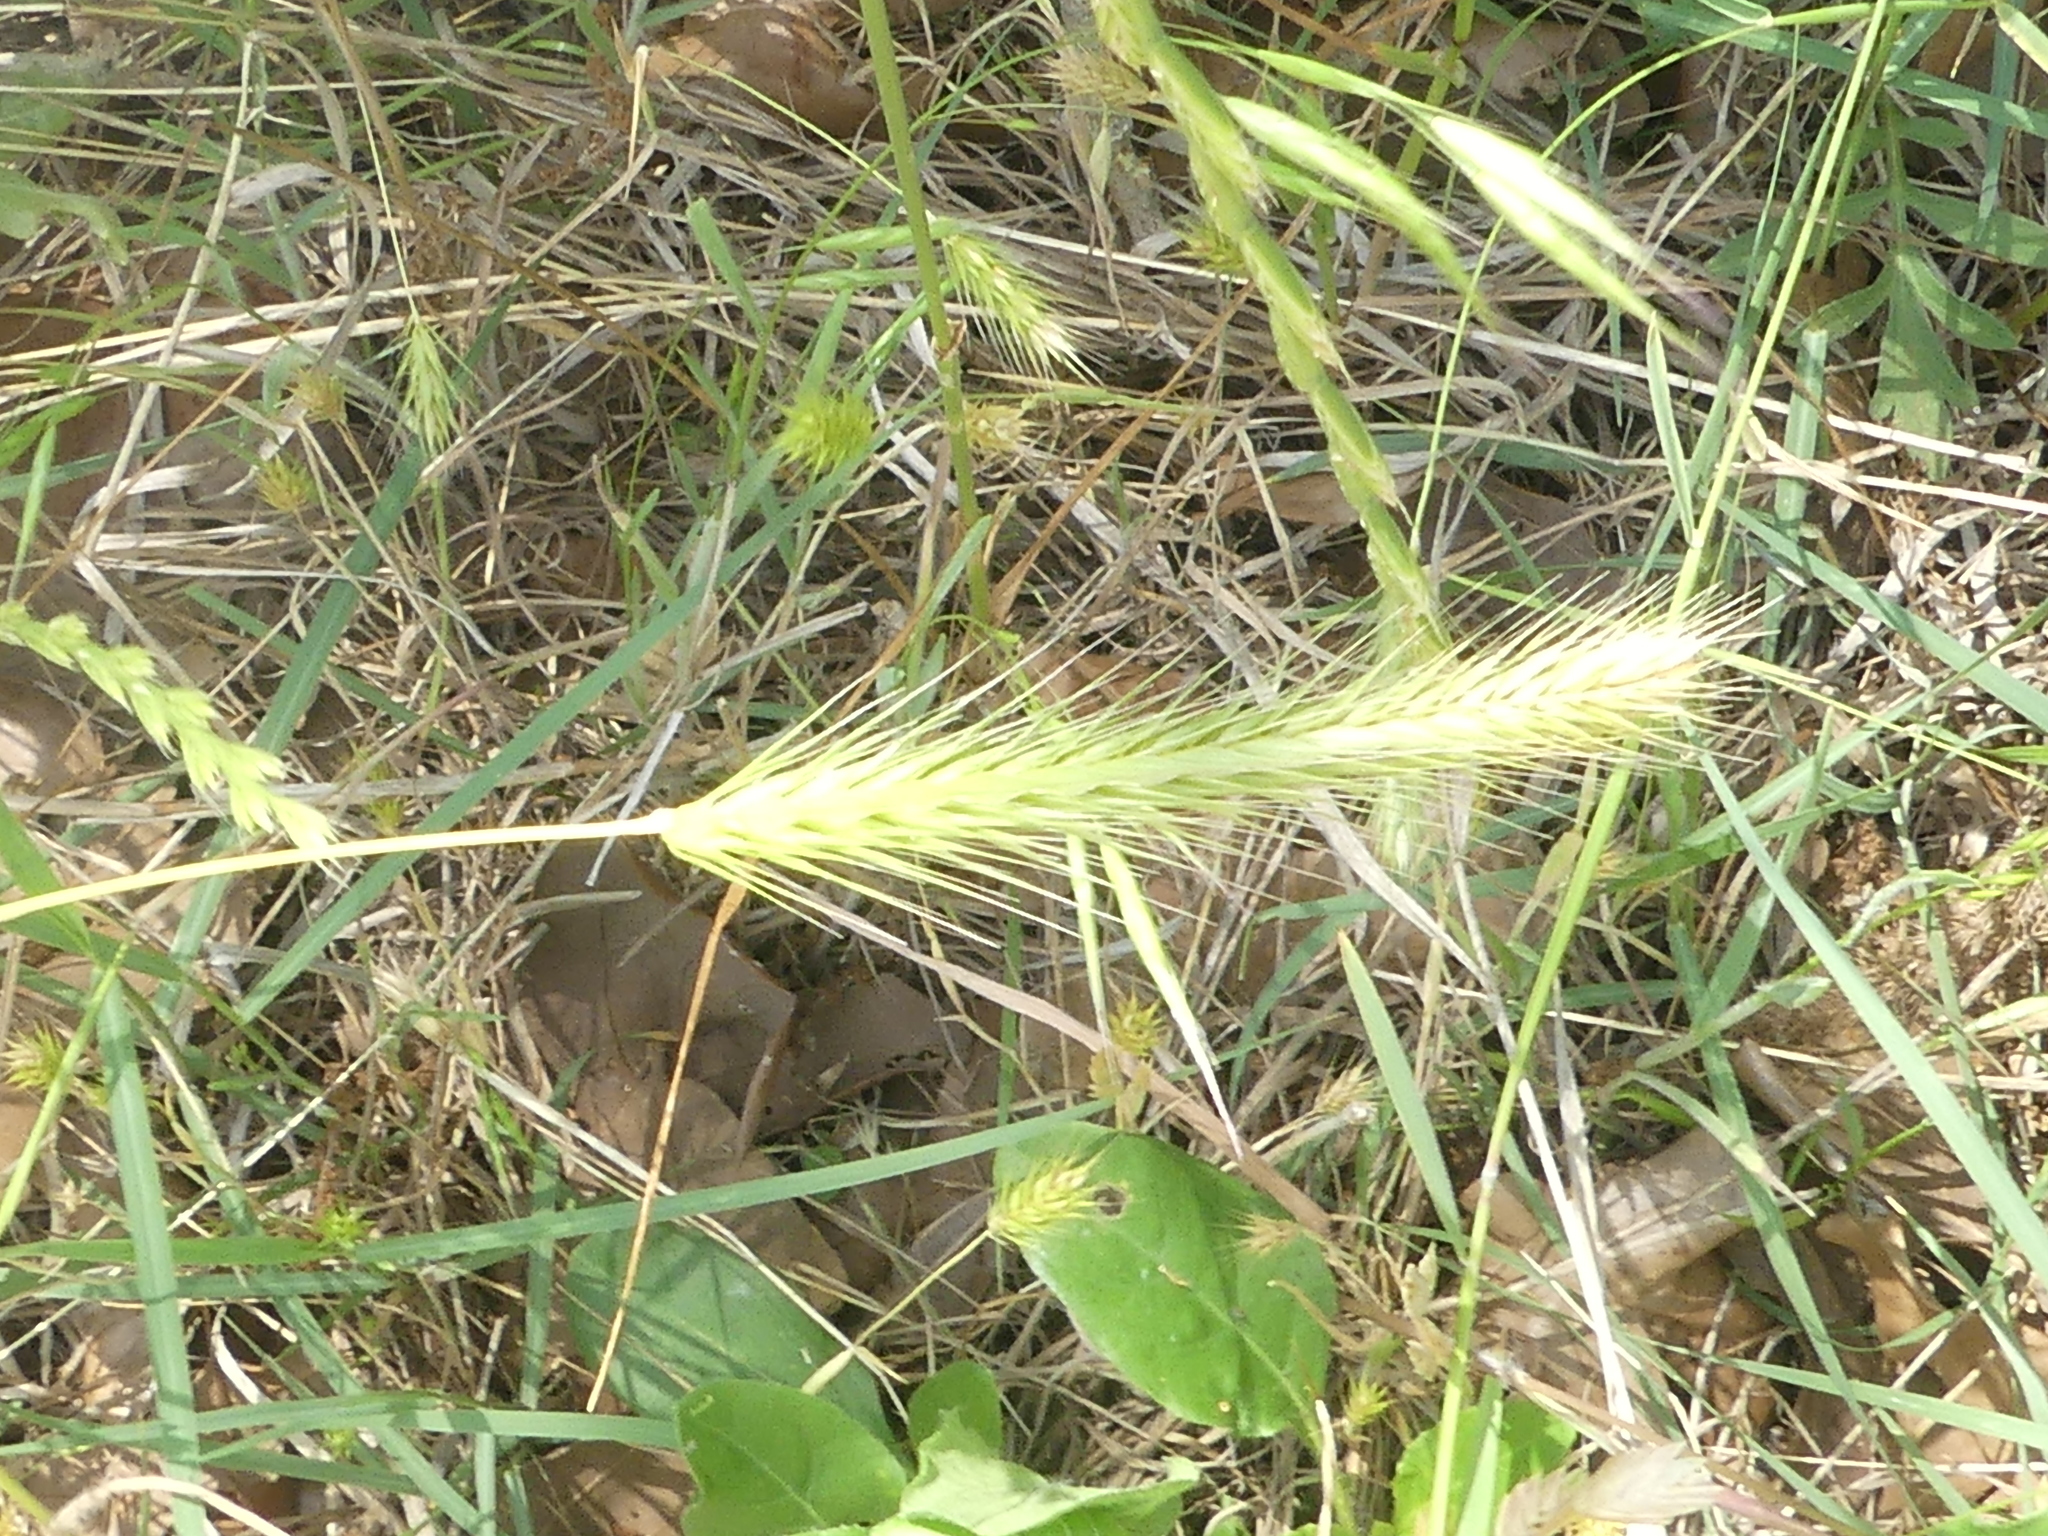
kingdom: Plantae
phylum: Tracheophyta
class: Liliopsida
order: Poales
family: Poaceae
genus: Hordeum
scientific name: Hordeum pusillum
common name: Little barley
